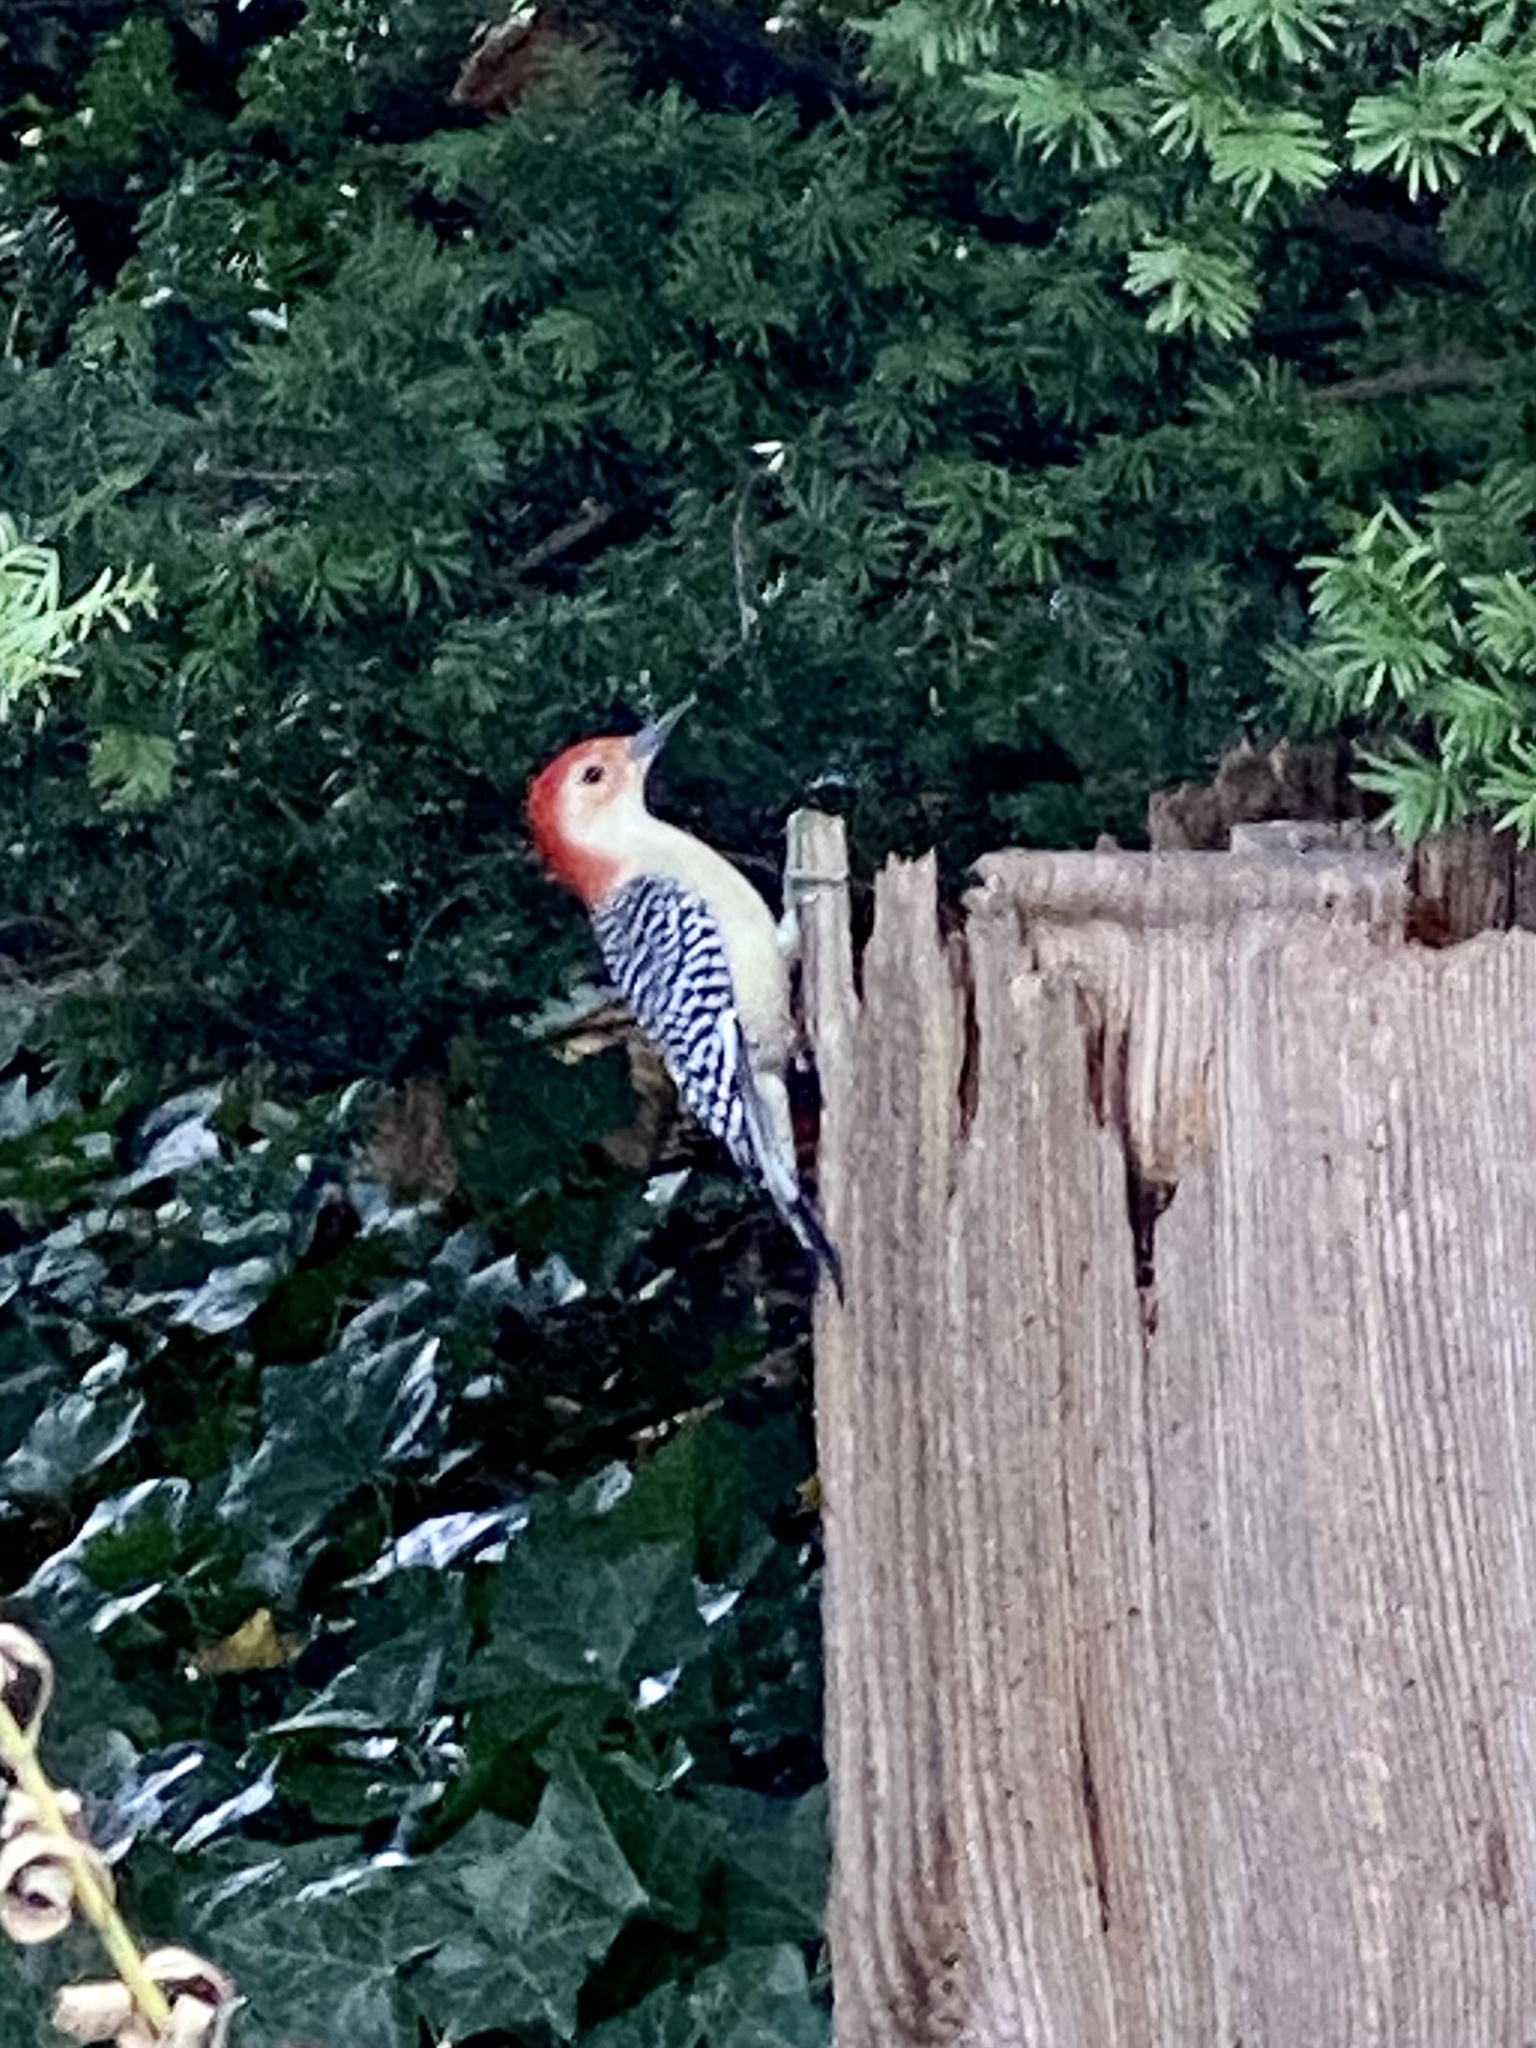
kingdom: Animalia
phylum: Chordata
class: Aves
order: Piciformes
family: Picidae
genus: Melanerpes
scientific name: Melanerpes carolinus
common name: Red-bellied woodpecker
